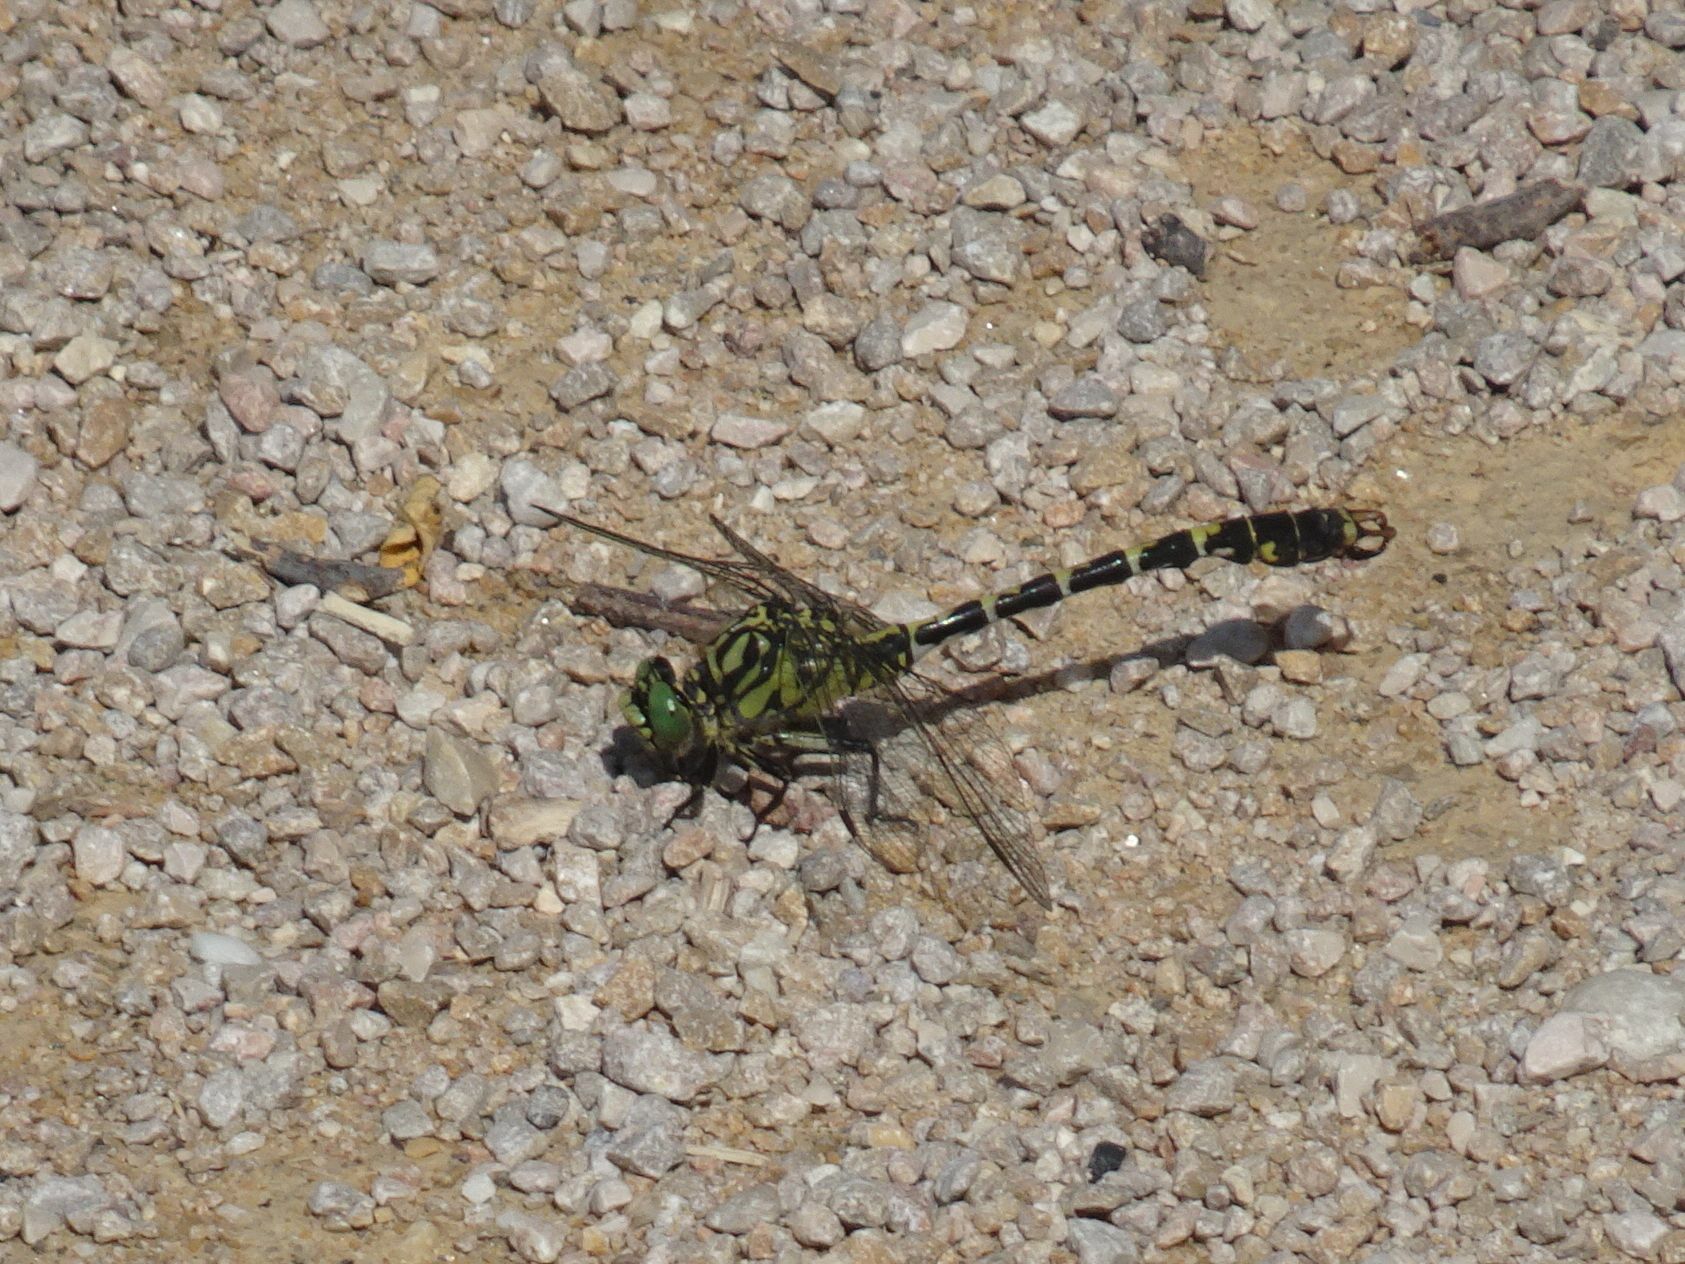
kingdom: Animalia
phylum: Arthropoda
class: Insecta
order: Odonata
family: Gomphidae
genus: Onychogomphus
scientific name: Onychogomphus forcipatus
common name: Small pincertail
